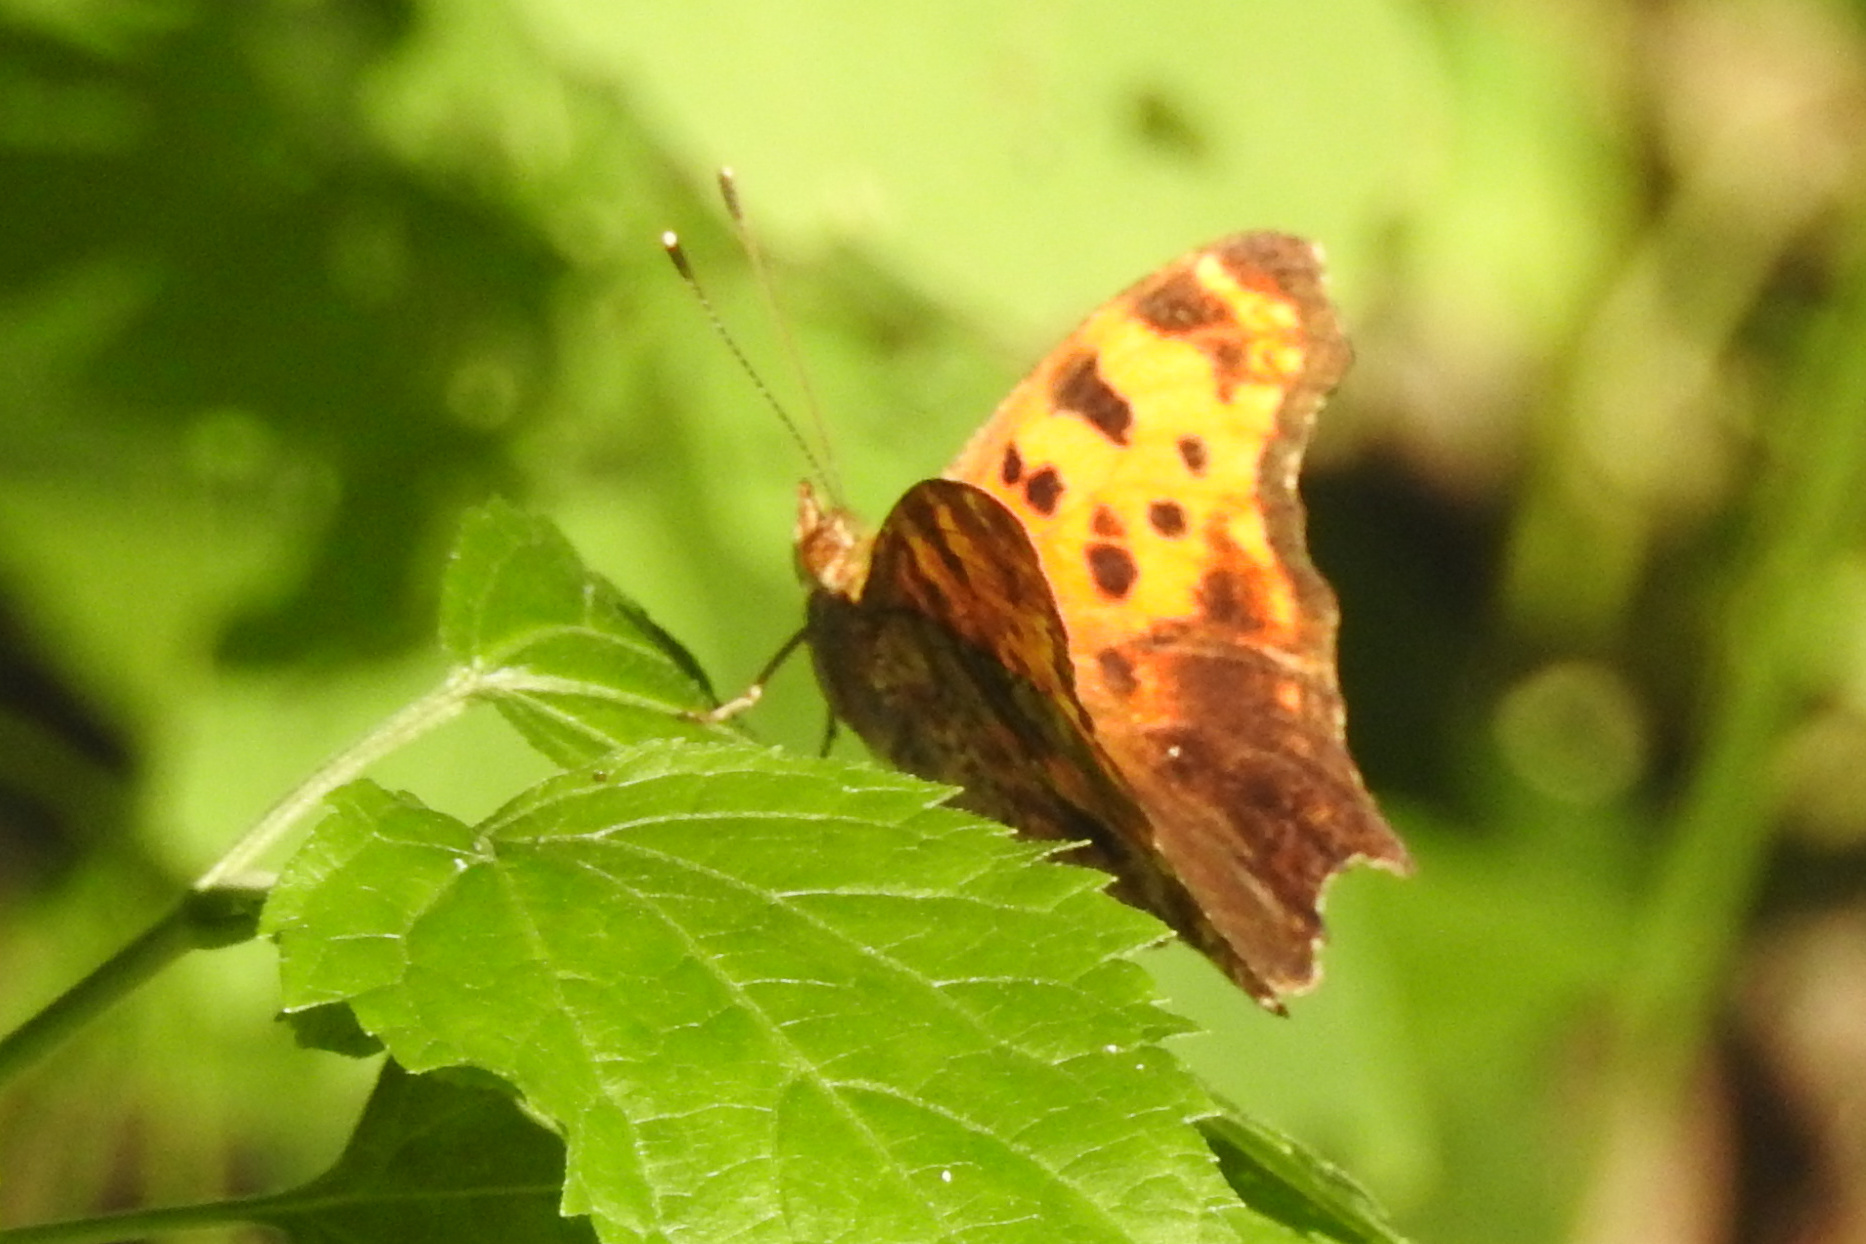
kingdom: Animalia
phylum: Arthropoda
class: Insecta
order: Lepidoptera
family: Nymphalidae
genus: Polygonia
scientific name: Polygonia comma
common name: Eastern comma
